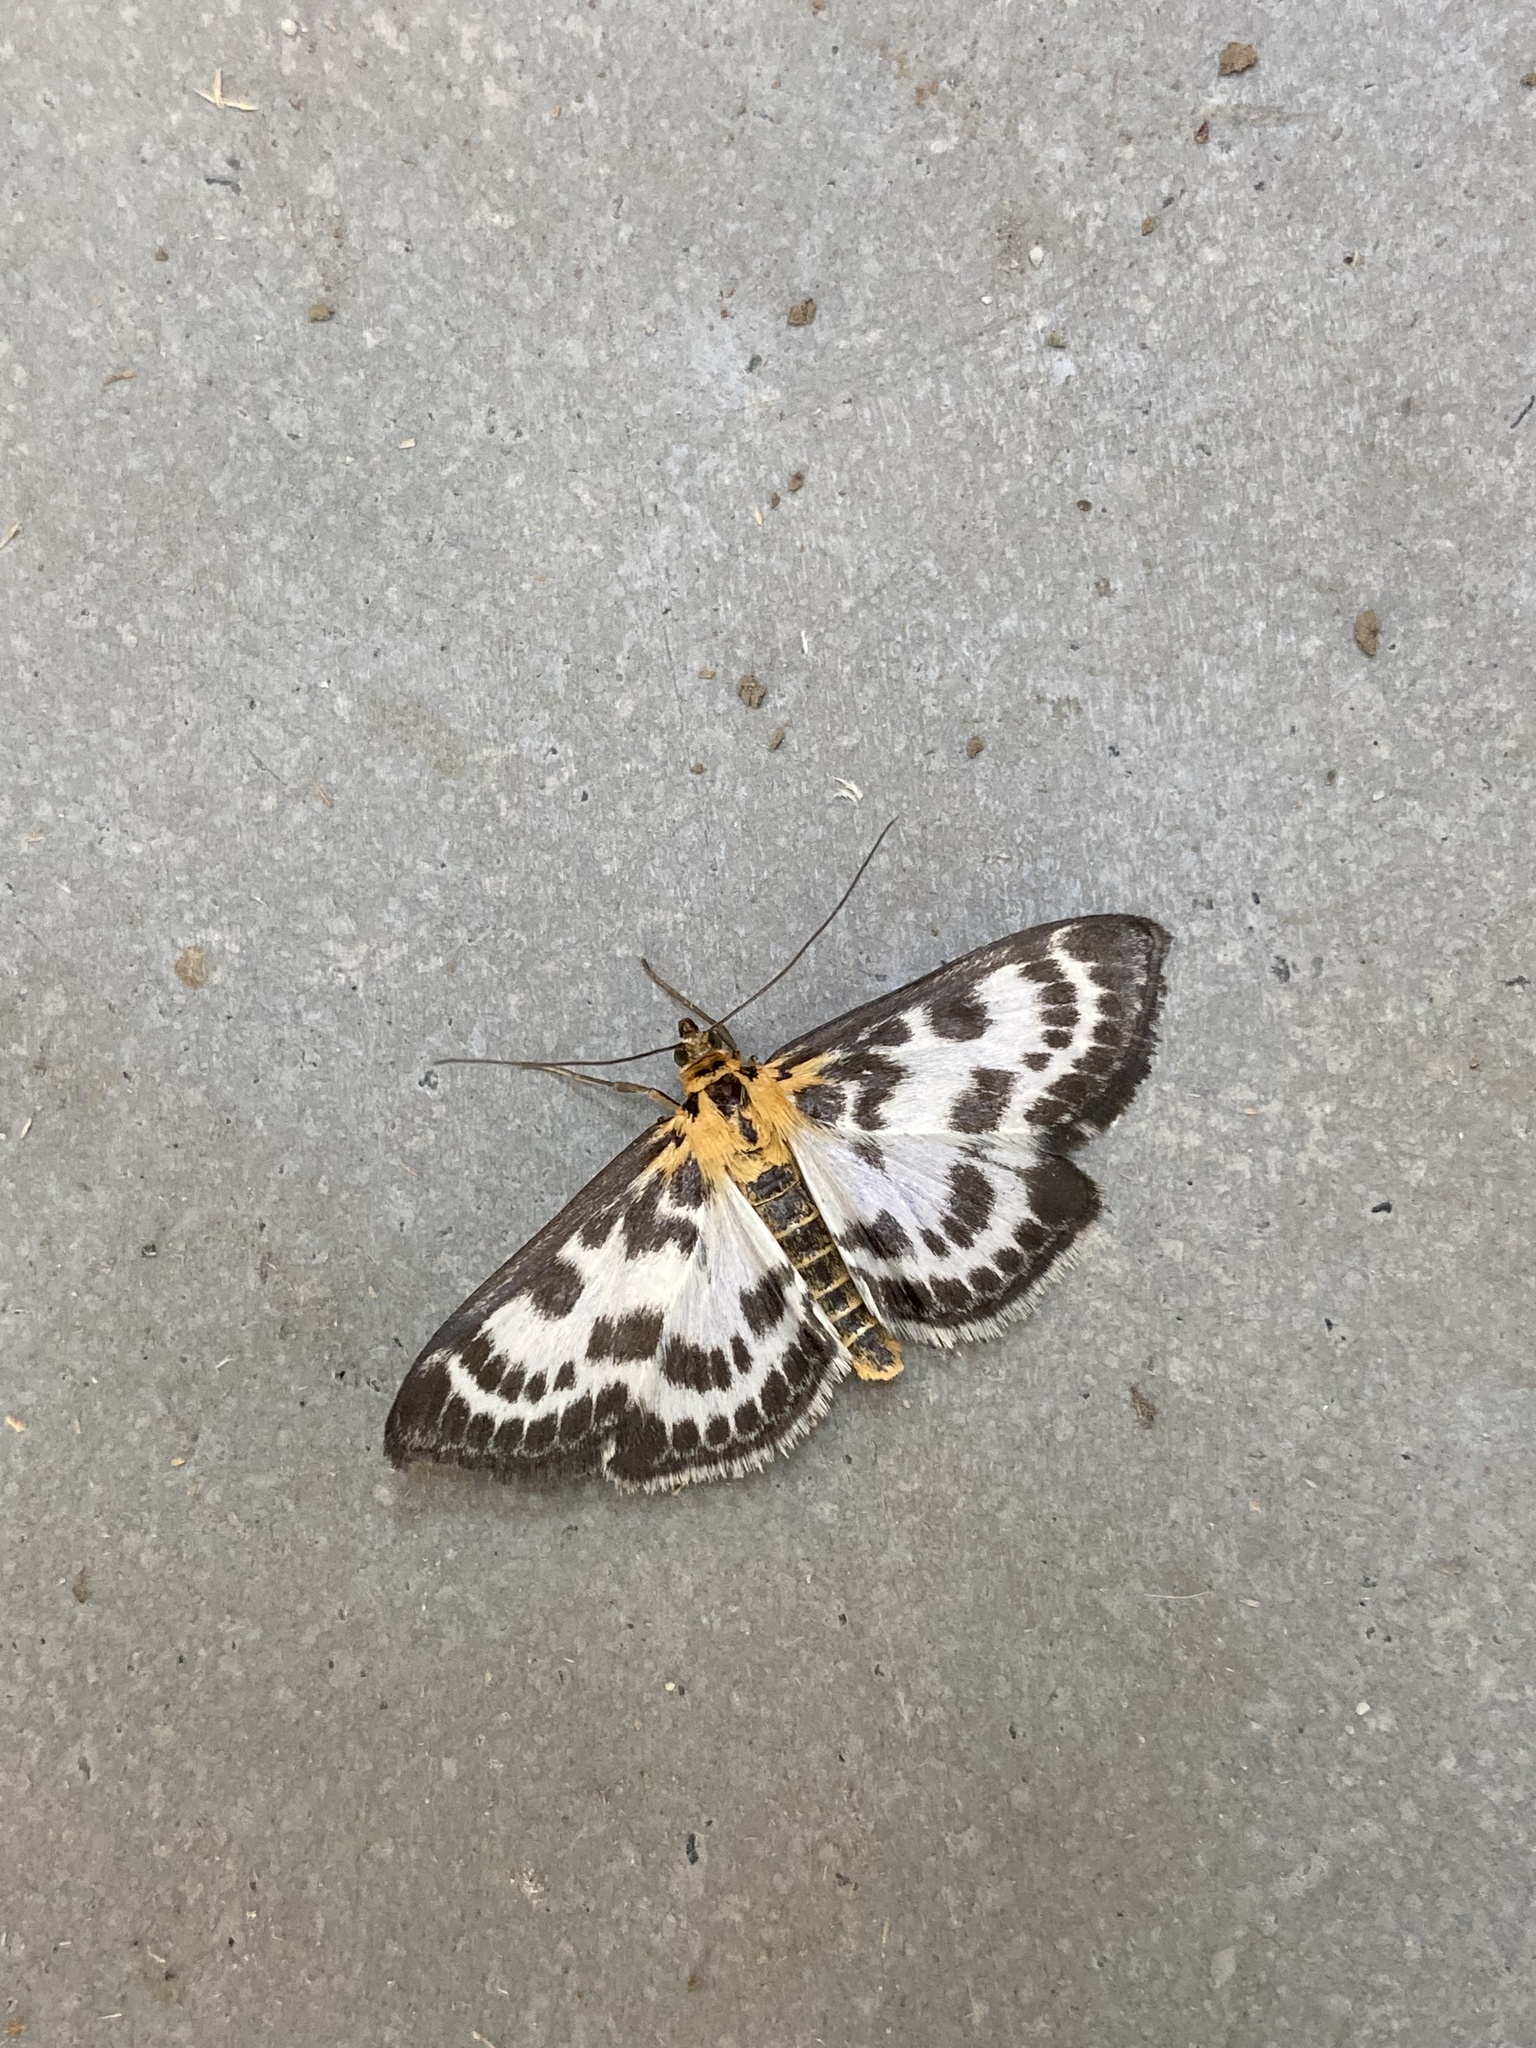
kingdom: Animalia
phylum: Arthropoda
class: Insecta
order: Lepidoptera
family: Crambidae
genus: Anania
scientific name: Anania hortulata
